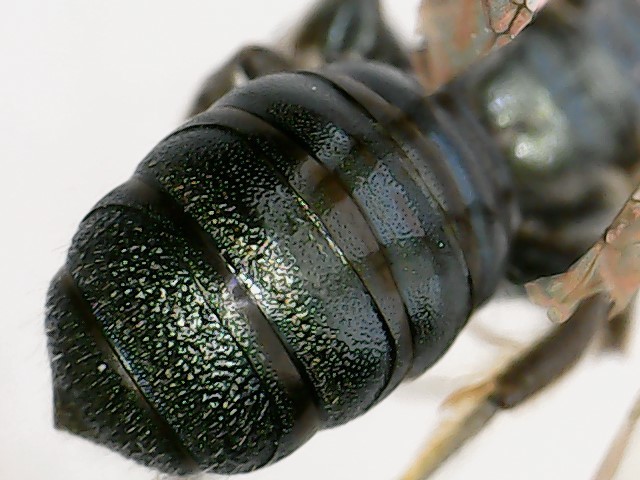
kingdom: Animalia
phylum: Arthropoda
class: Insecta
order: Hymenoptera
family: Apidae
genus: Ceratina
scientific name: Ceratina calcarata
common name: Spurred carpenter bee
